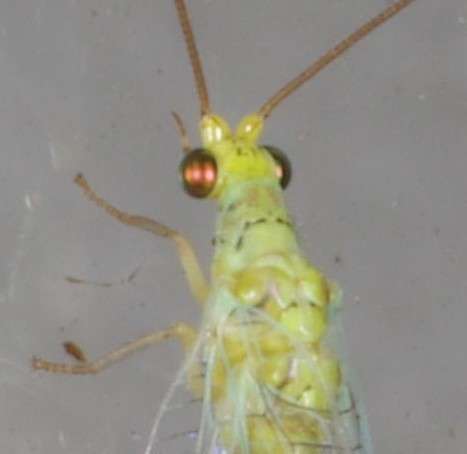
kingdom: Animalia
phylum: Arthropoda
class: Insecta
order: Neuroptera
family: Chrysopidae
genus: Plesiochrysa
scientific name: Plesiochrysa ramburi
